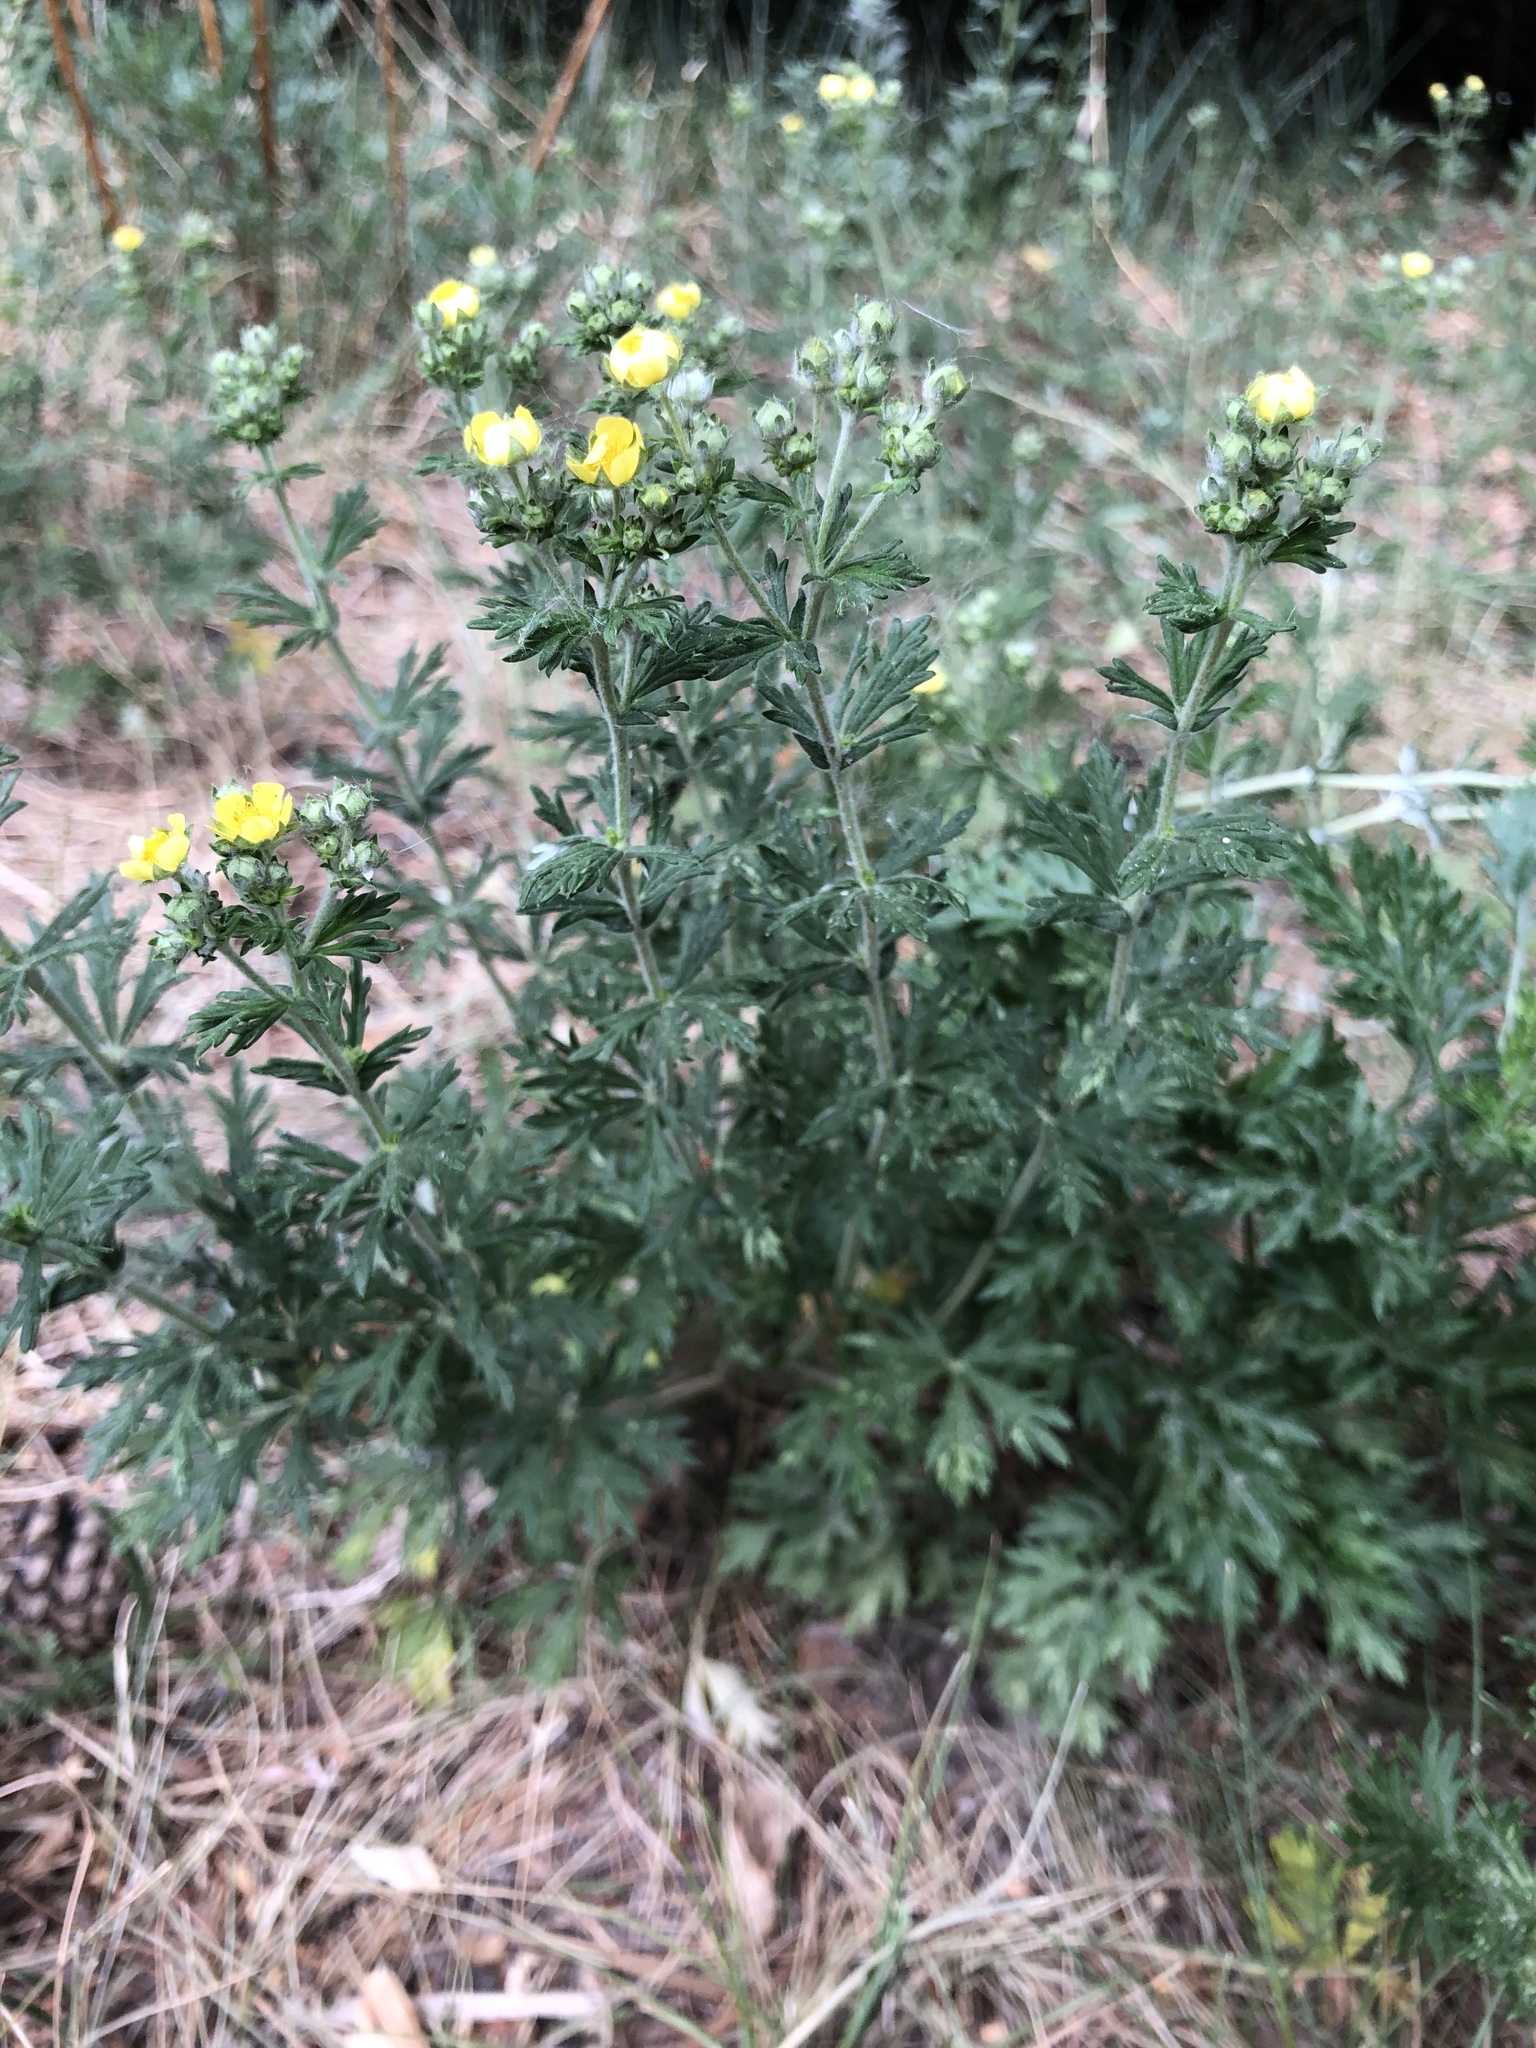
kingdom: Plantae
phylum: Tracheophyta
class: Magnoliopsida
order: Rosales
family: Rosaceae
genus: Potentilla
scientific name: Potentilla argentea
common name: Hoary cinquefoil
